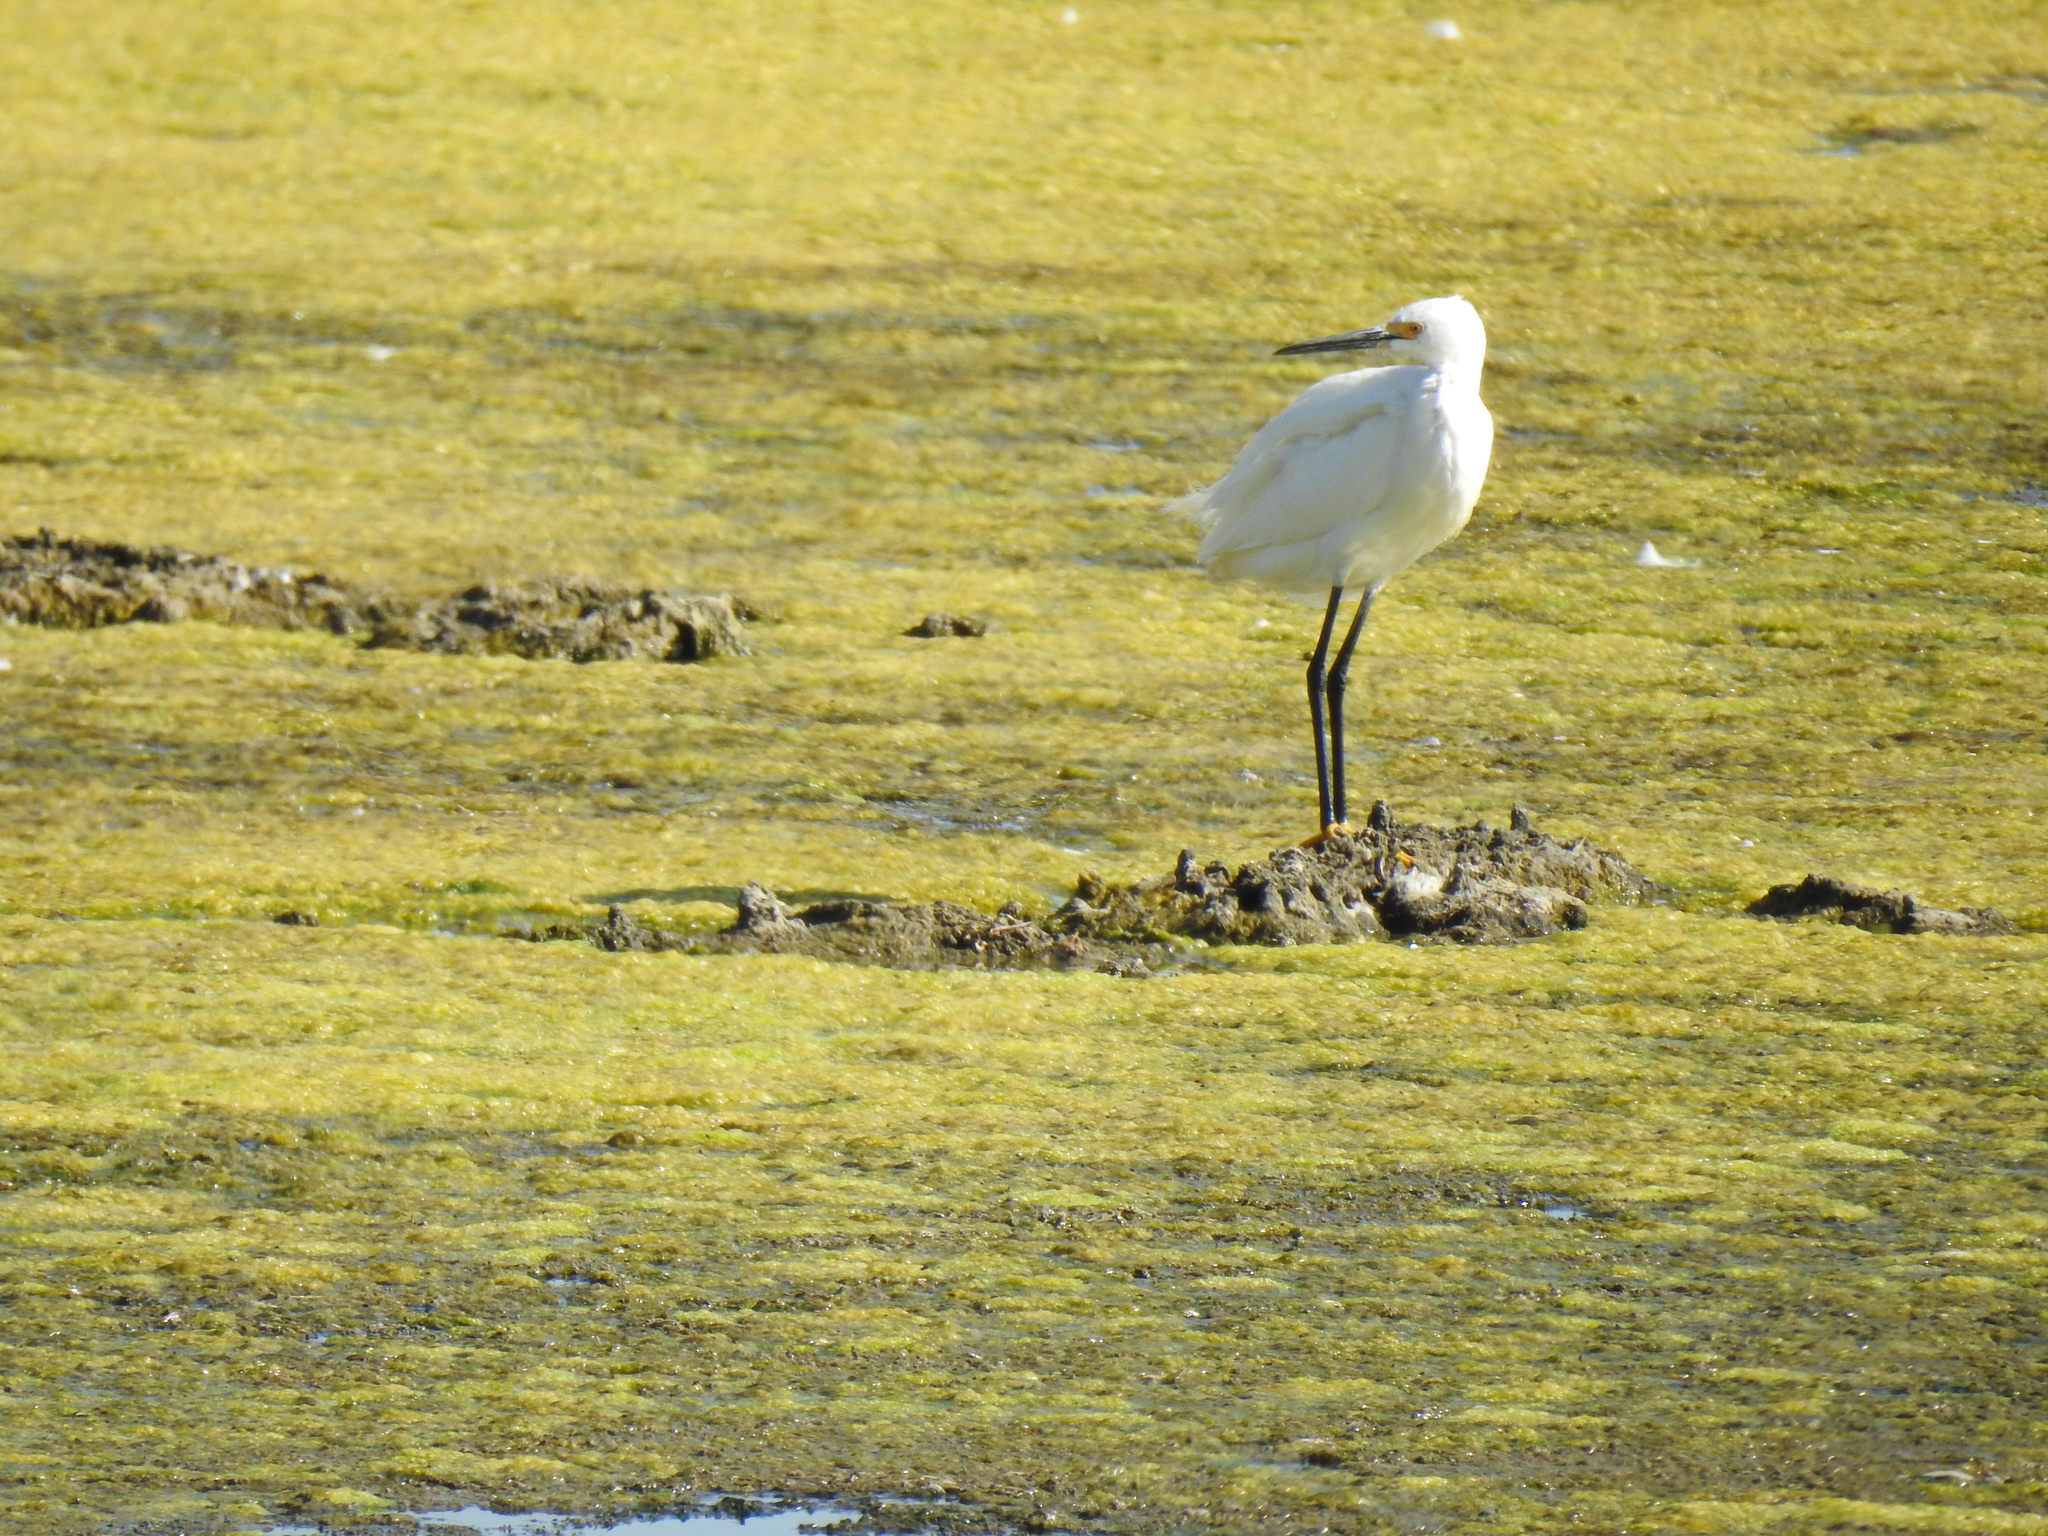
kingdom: Animalia
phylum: Chordata
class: Aves
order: Pelecaniformes
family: Ardeidae
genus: Egretta
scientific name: Egretta thula
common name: Snowy egret
